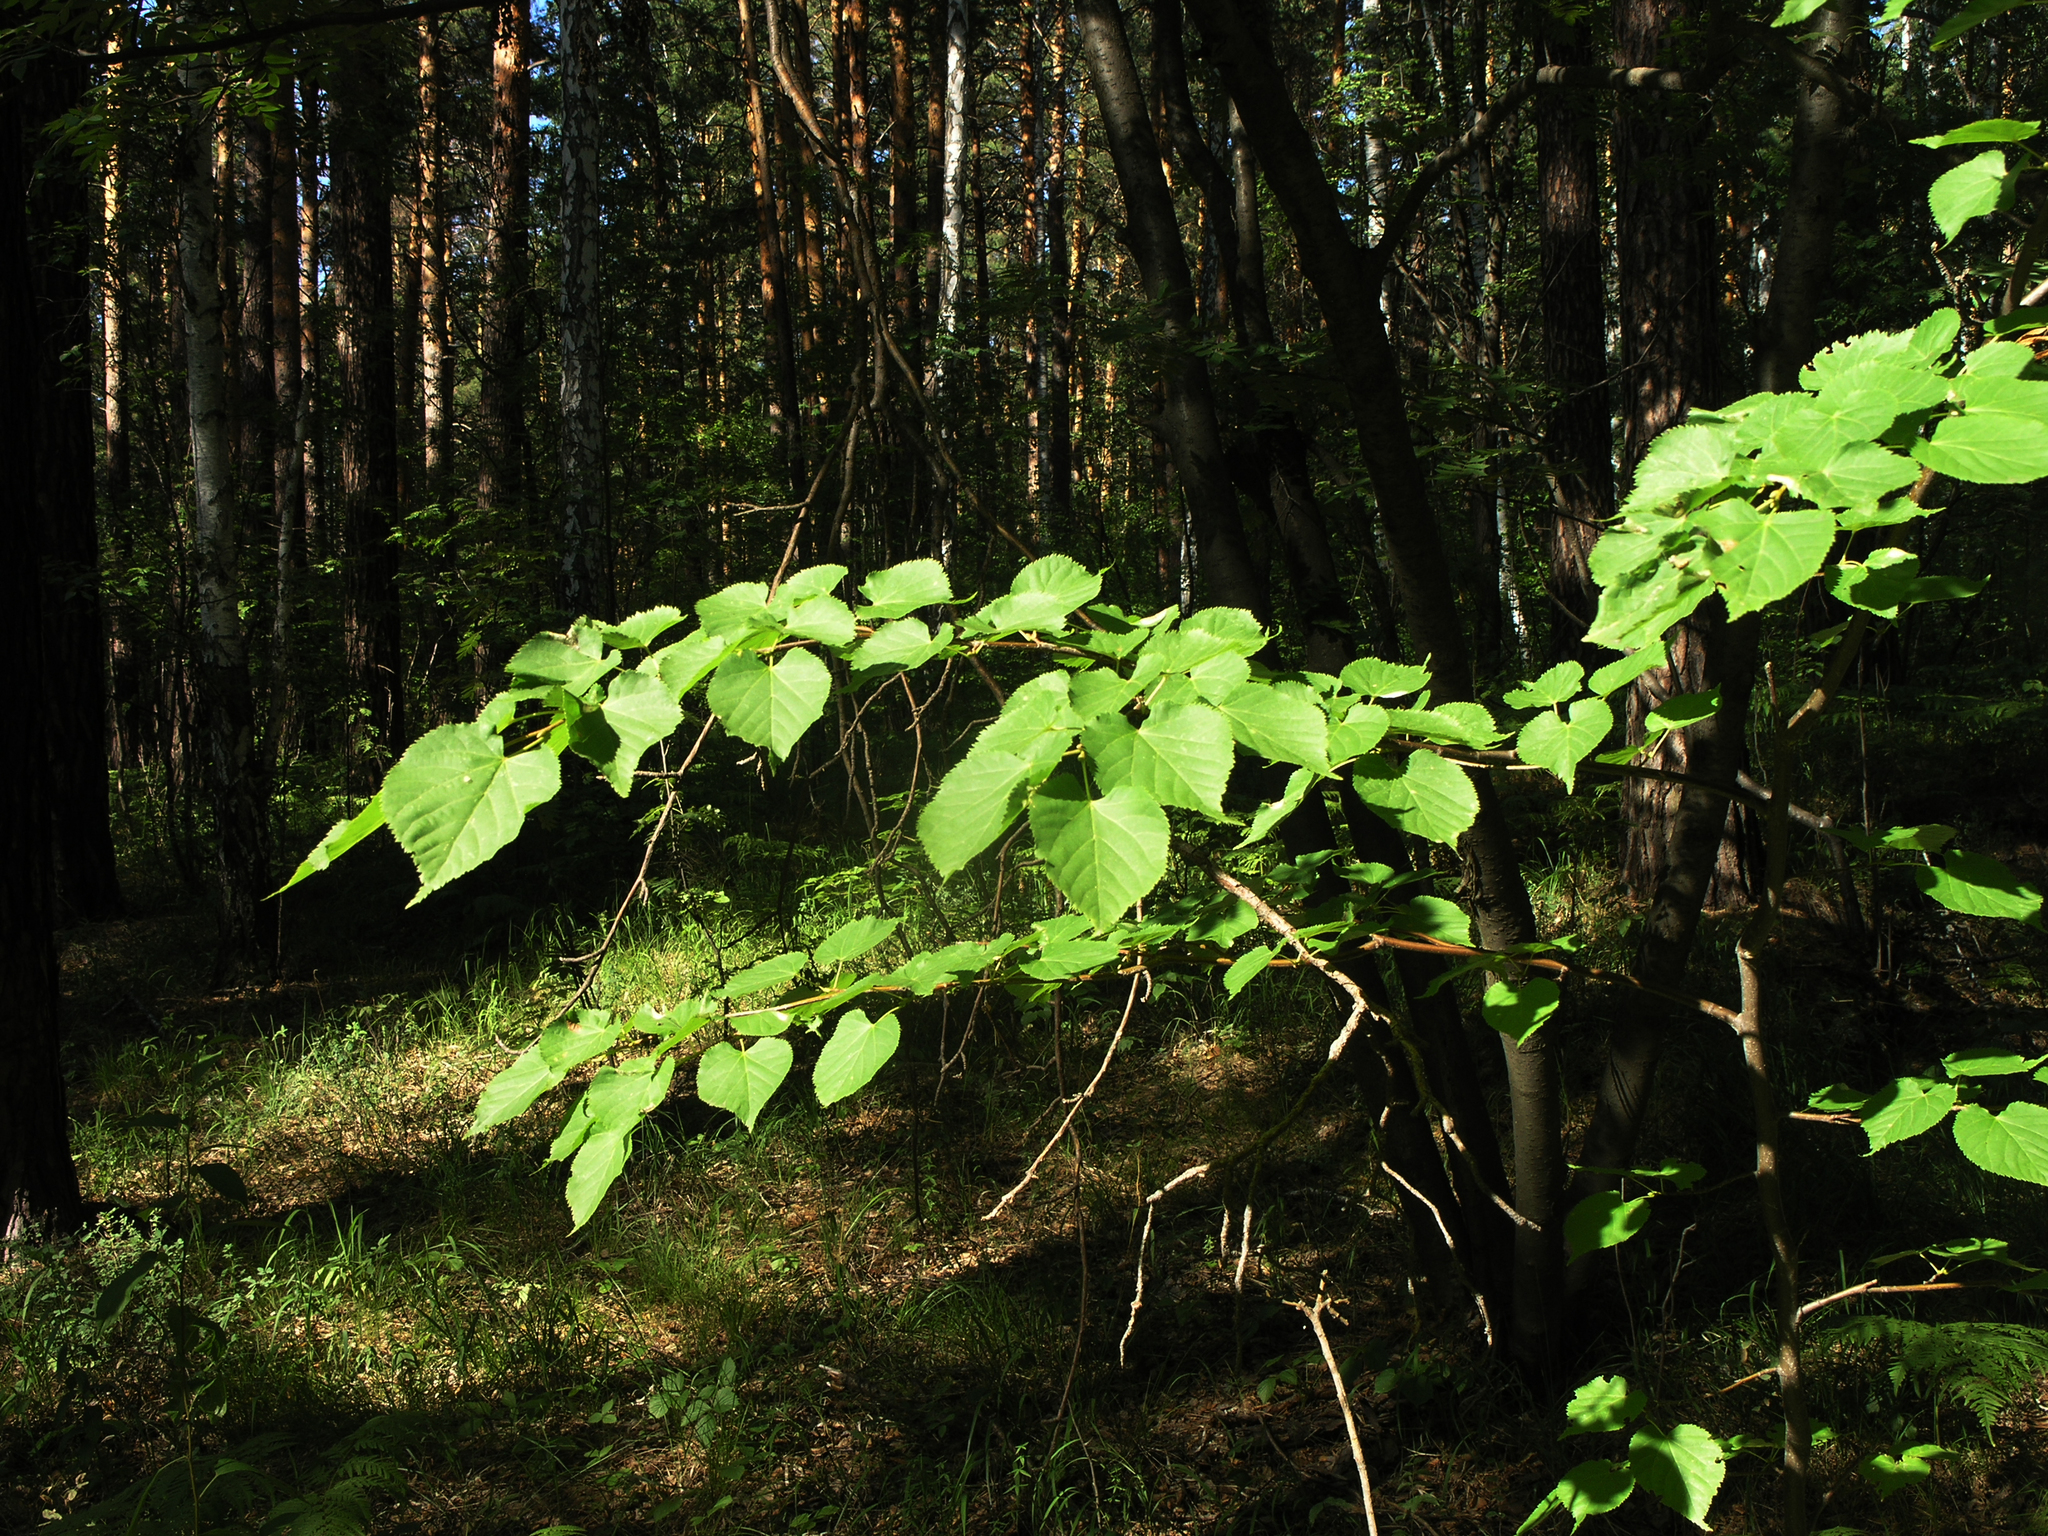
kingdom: Plantae
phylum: Tracheophyta
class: Magnoliopsida
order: Malvales
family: Malvaceae
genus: Tilia
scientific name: Tilia cordata
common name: Small-leaved lime
